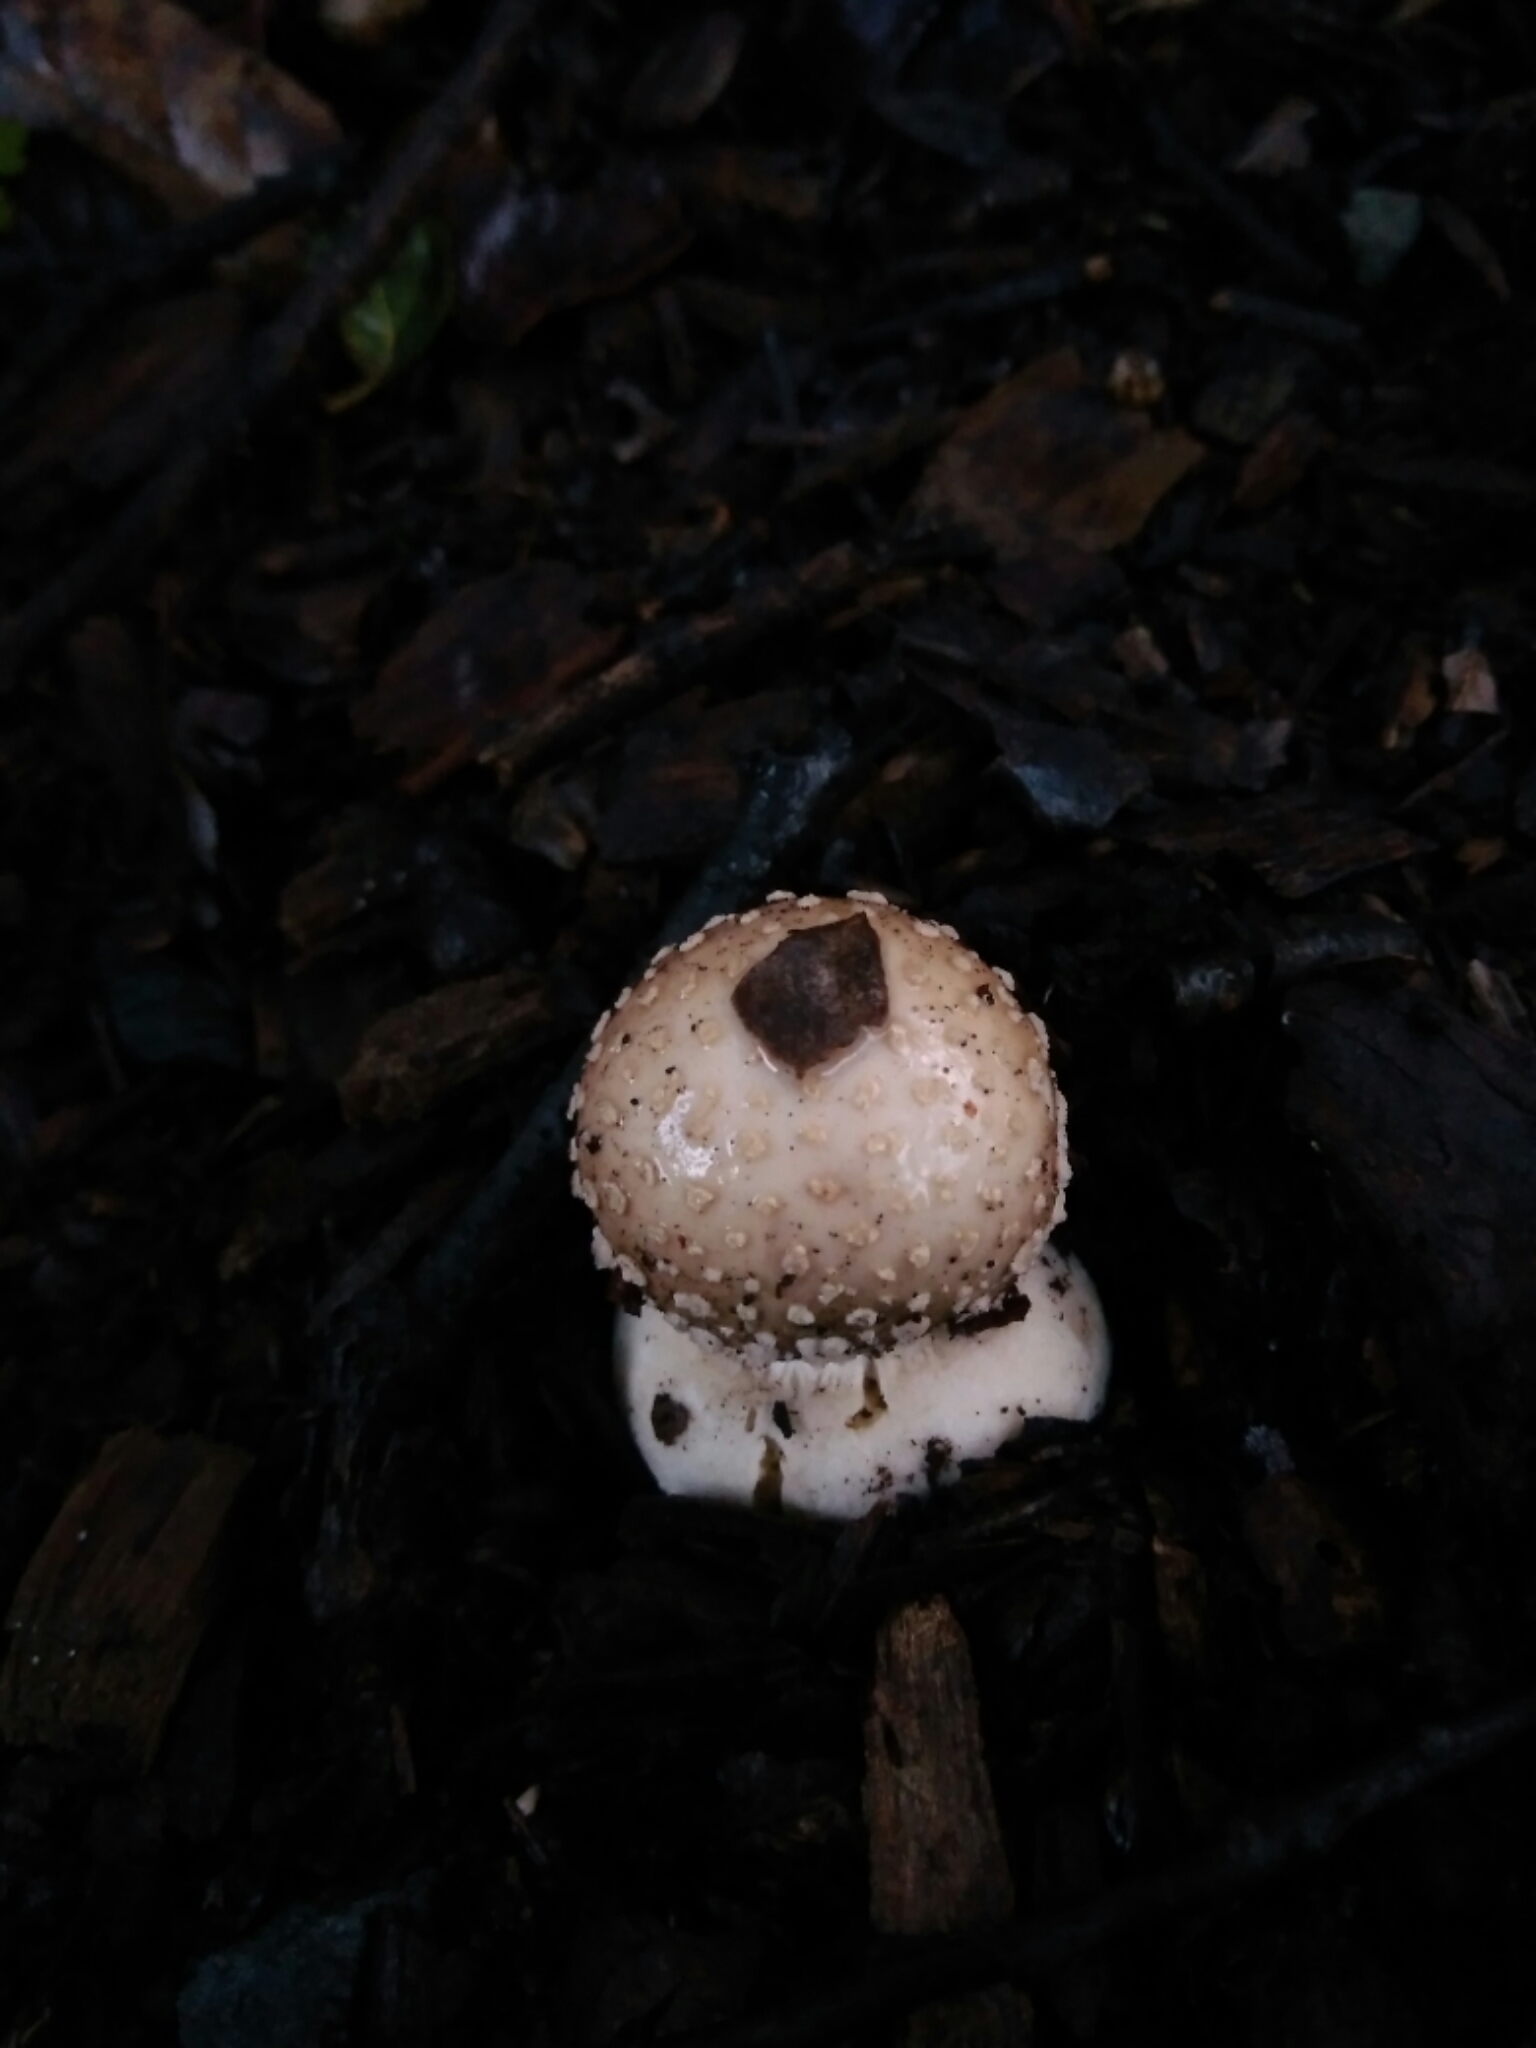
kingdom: Fungi
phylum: Basidiomycota
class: Agaricomycetes
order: Agaricales
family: Amanitaceae
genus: Amanita
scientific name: Amanita pantherina
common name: Panthercap
